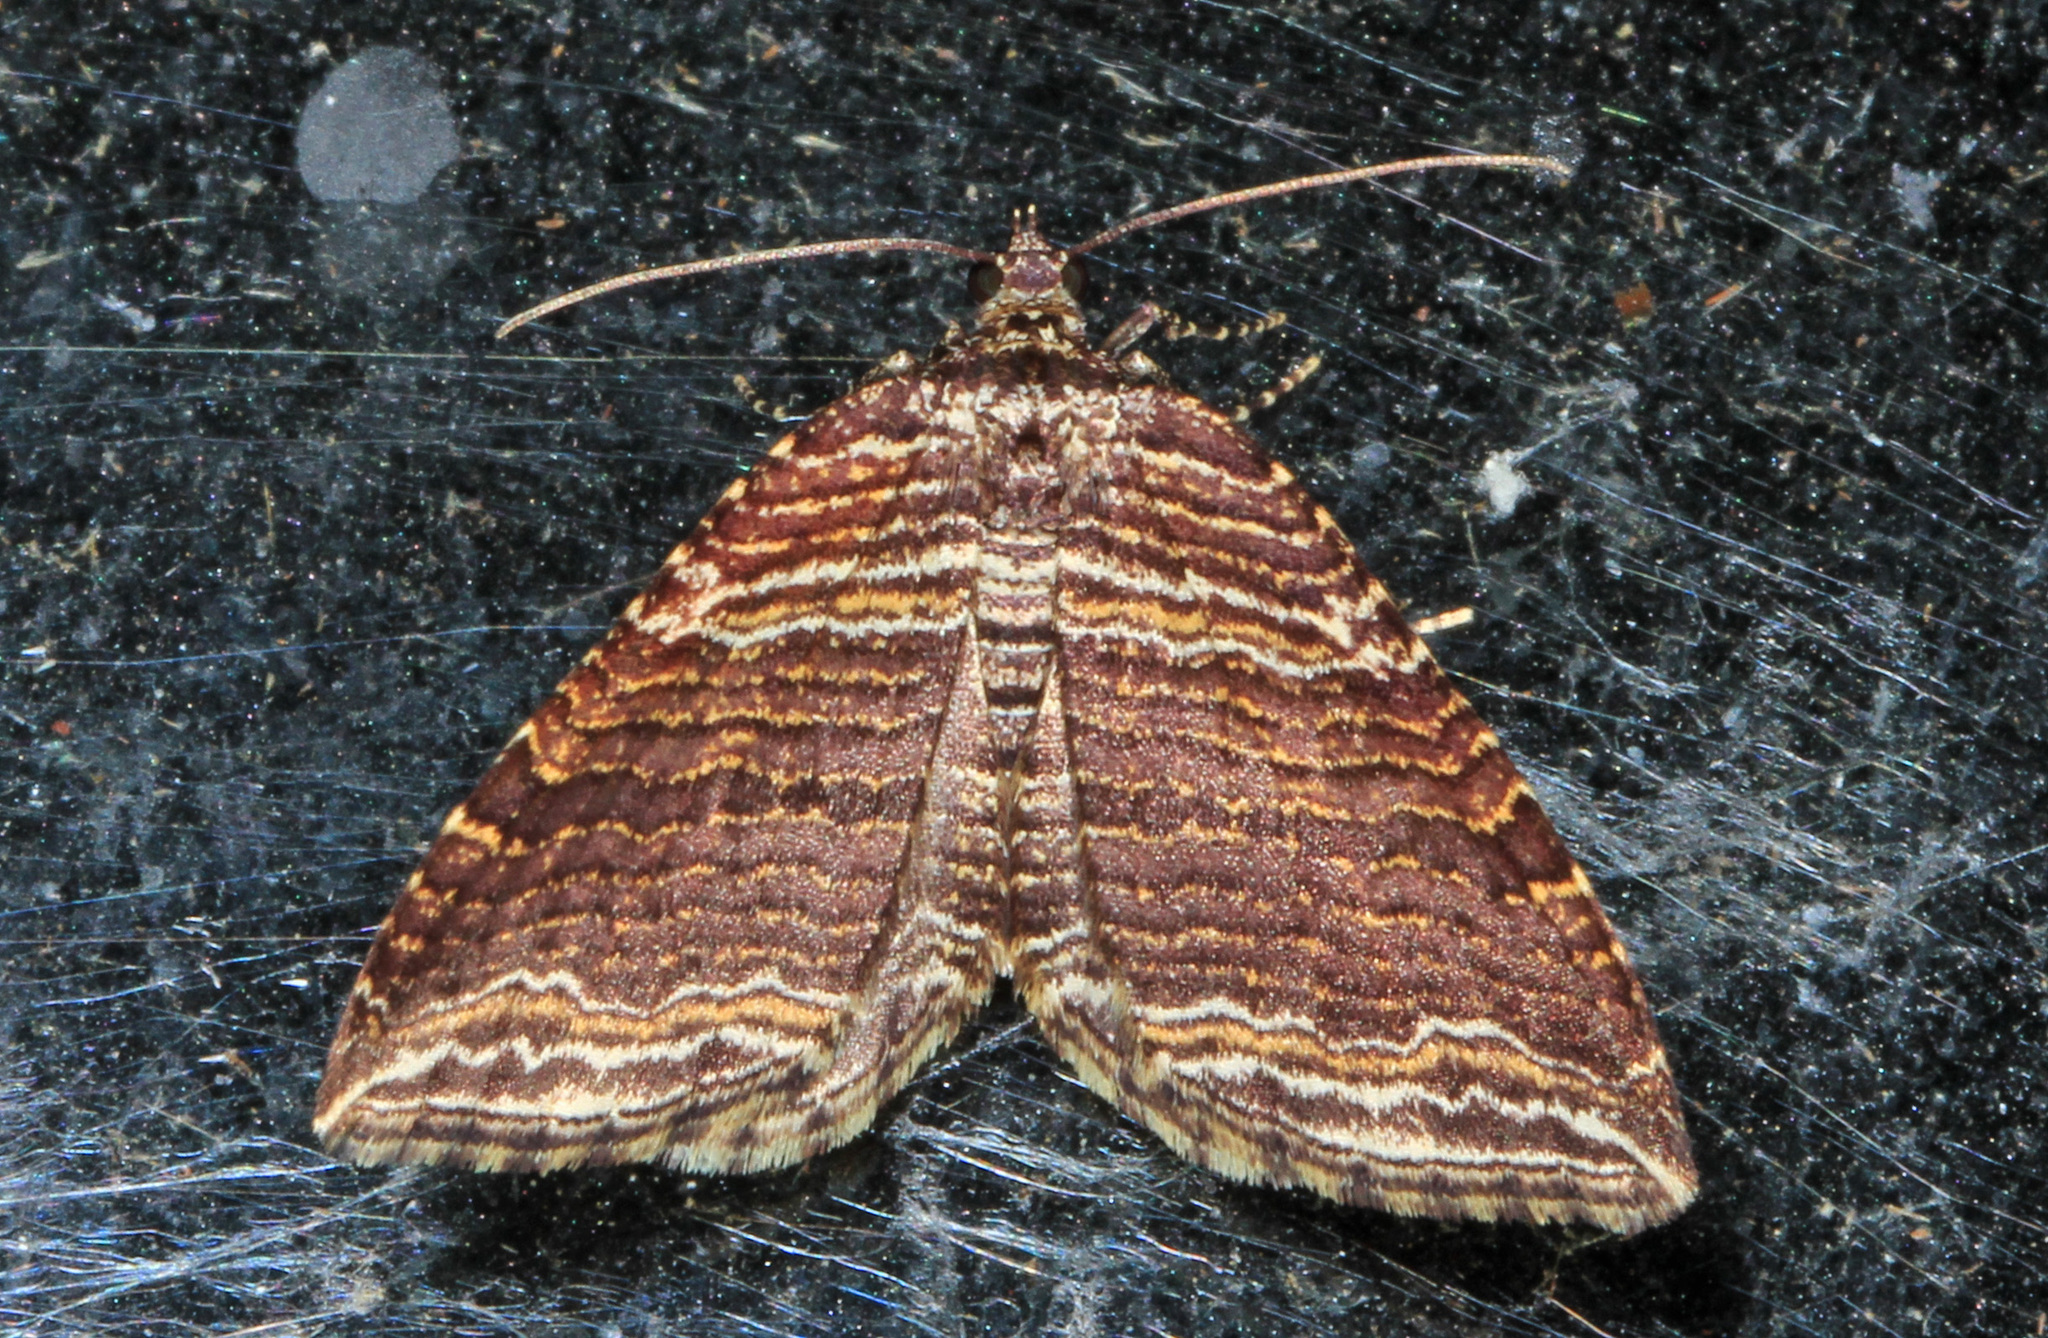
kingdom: Animalia
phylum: Arthropoda
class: Insecta
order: Lepidoptera
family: Geometridae
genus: Anticlea
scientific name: Anticlea multiferata
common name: Many-lined carpet
